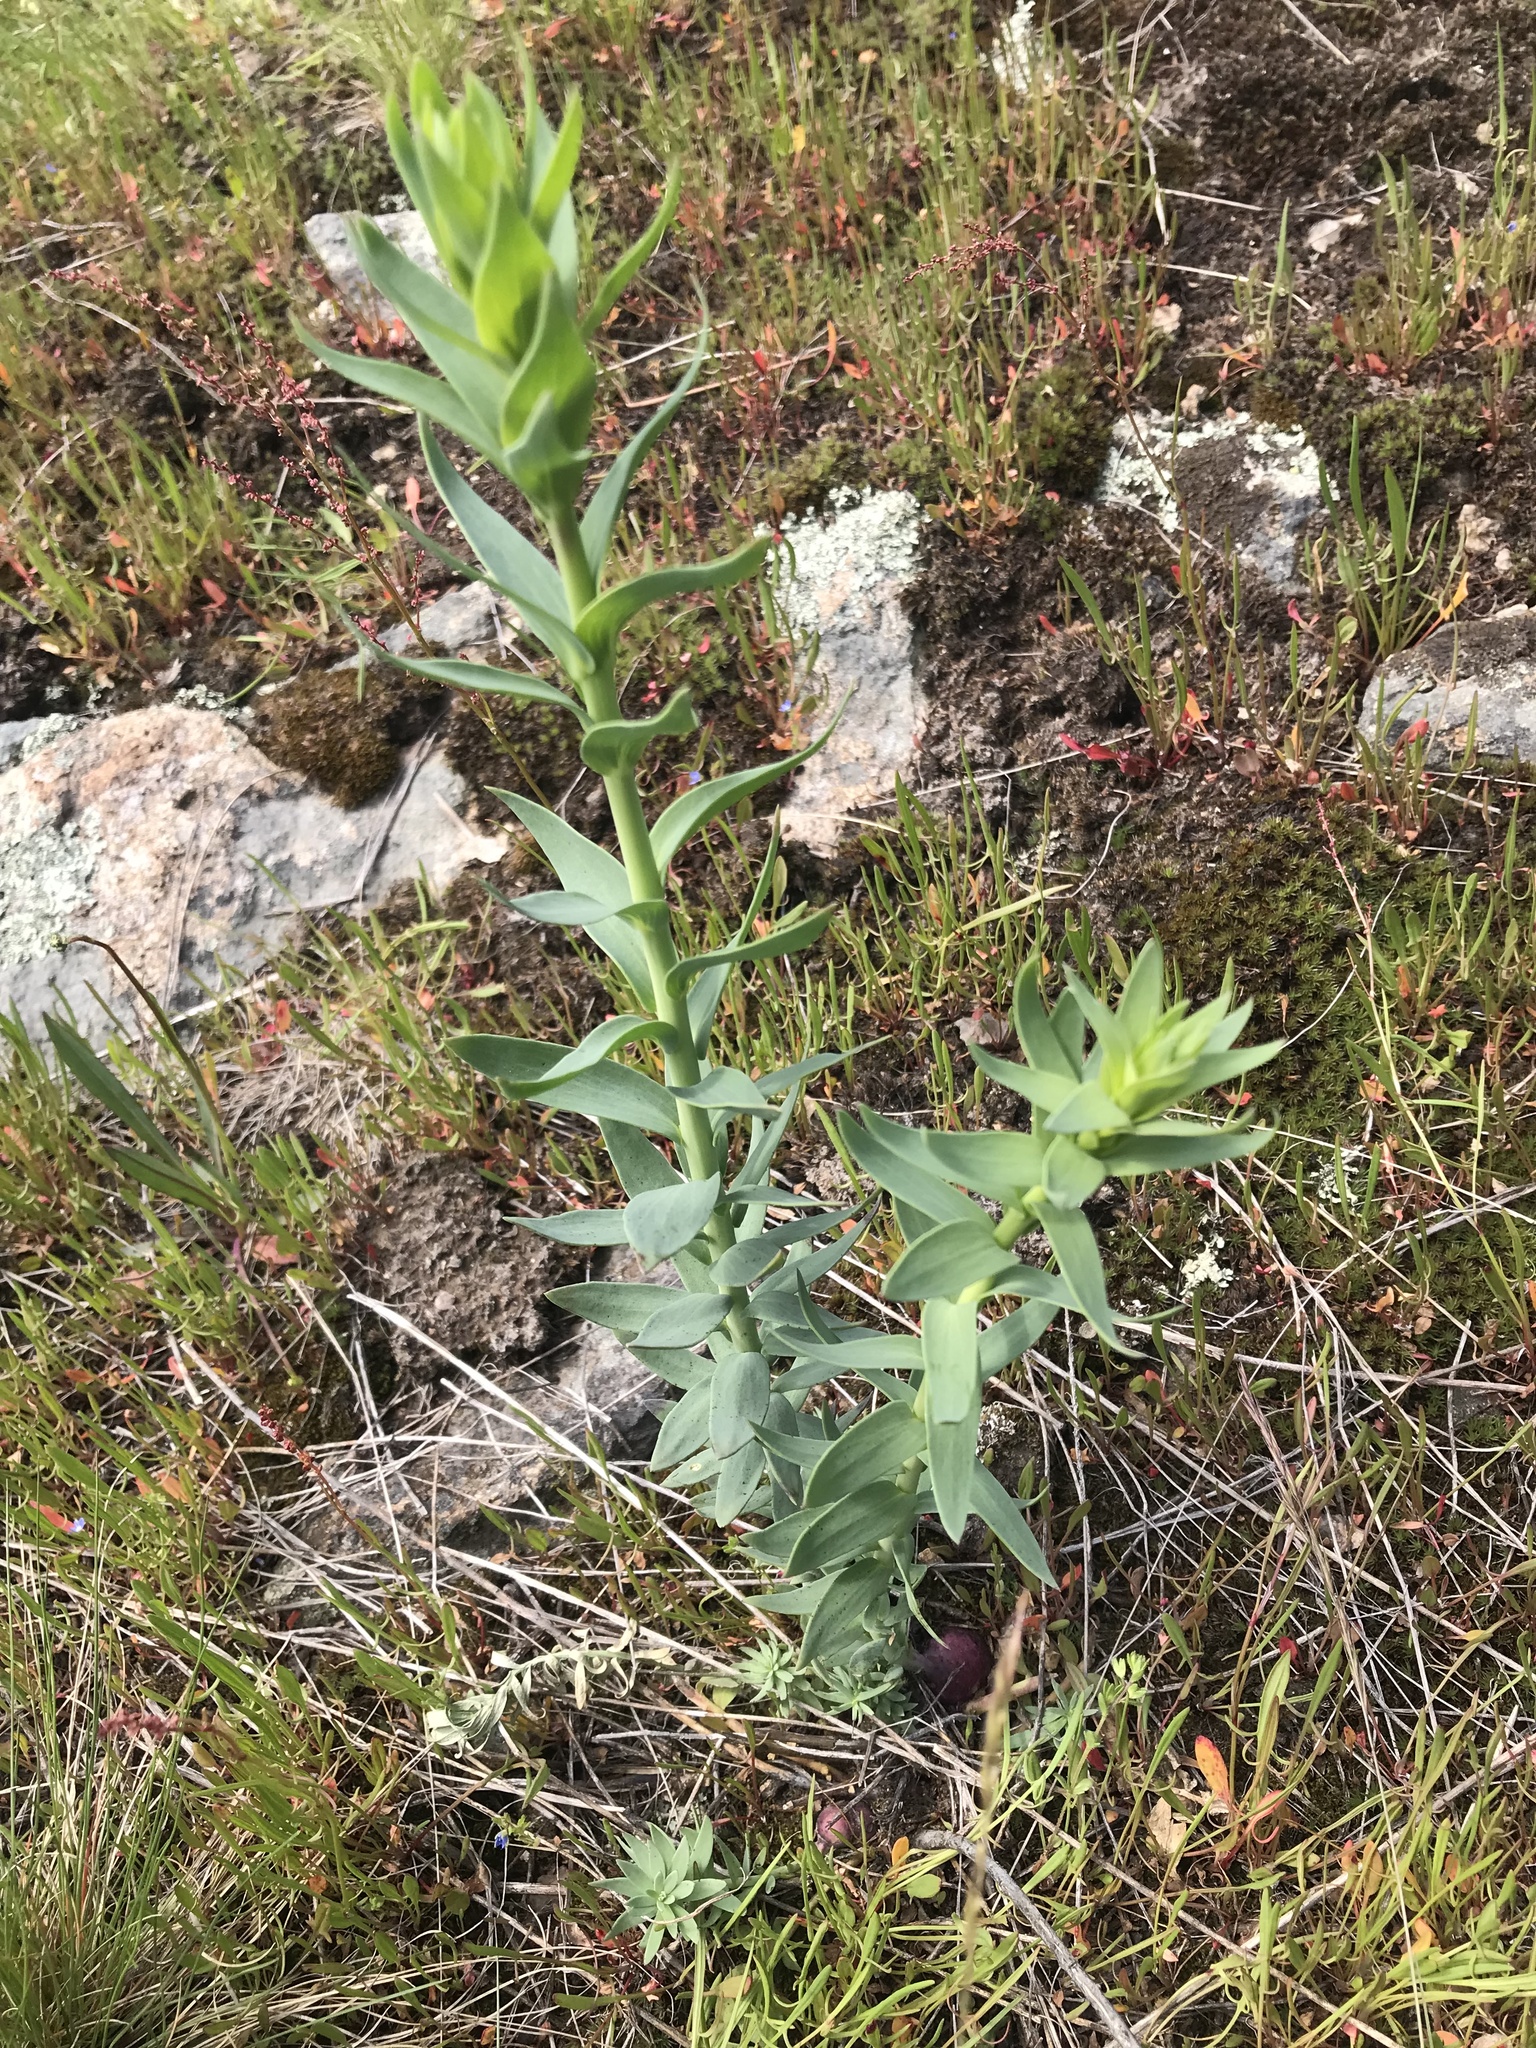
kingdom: Plantae
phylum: Tracheophyta
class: Magnoliopsida
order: Lamiales
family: Plantaginaceae
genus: Linaria
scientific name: Linaria genistifolia
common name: Broomleaf toadflax
